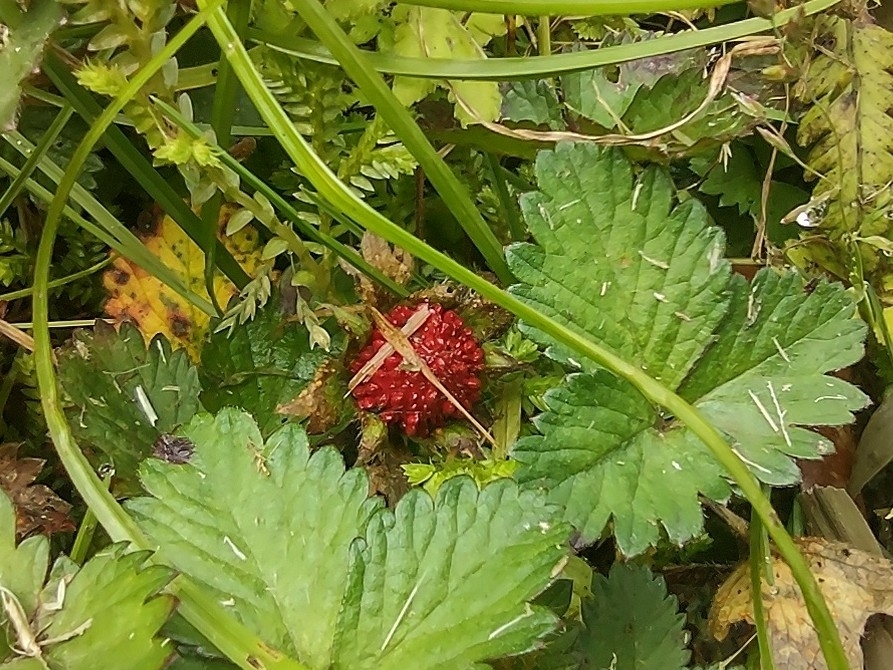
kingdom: Plantae
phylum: Tracheophyta
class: Magnoliopsida
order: Rosales
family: Rosaceae
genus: Potentilla
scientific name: Potentilla indica
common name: Yellow-flowered strawberry
